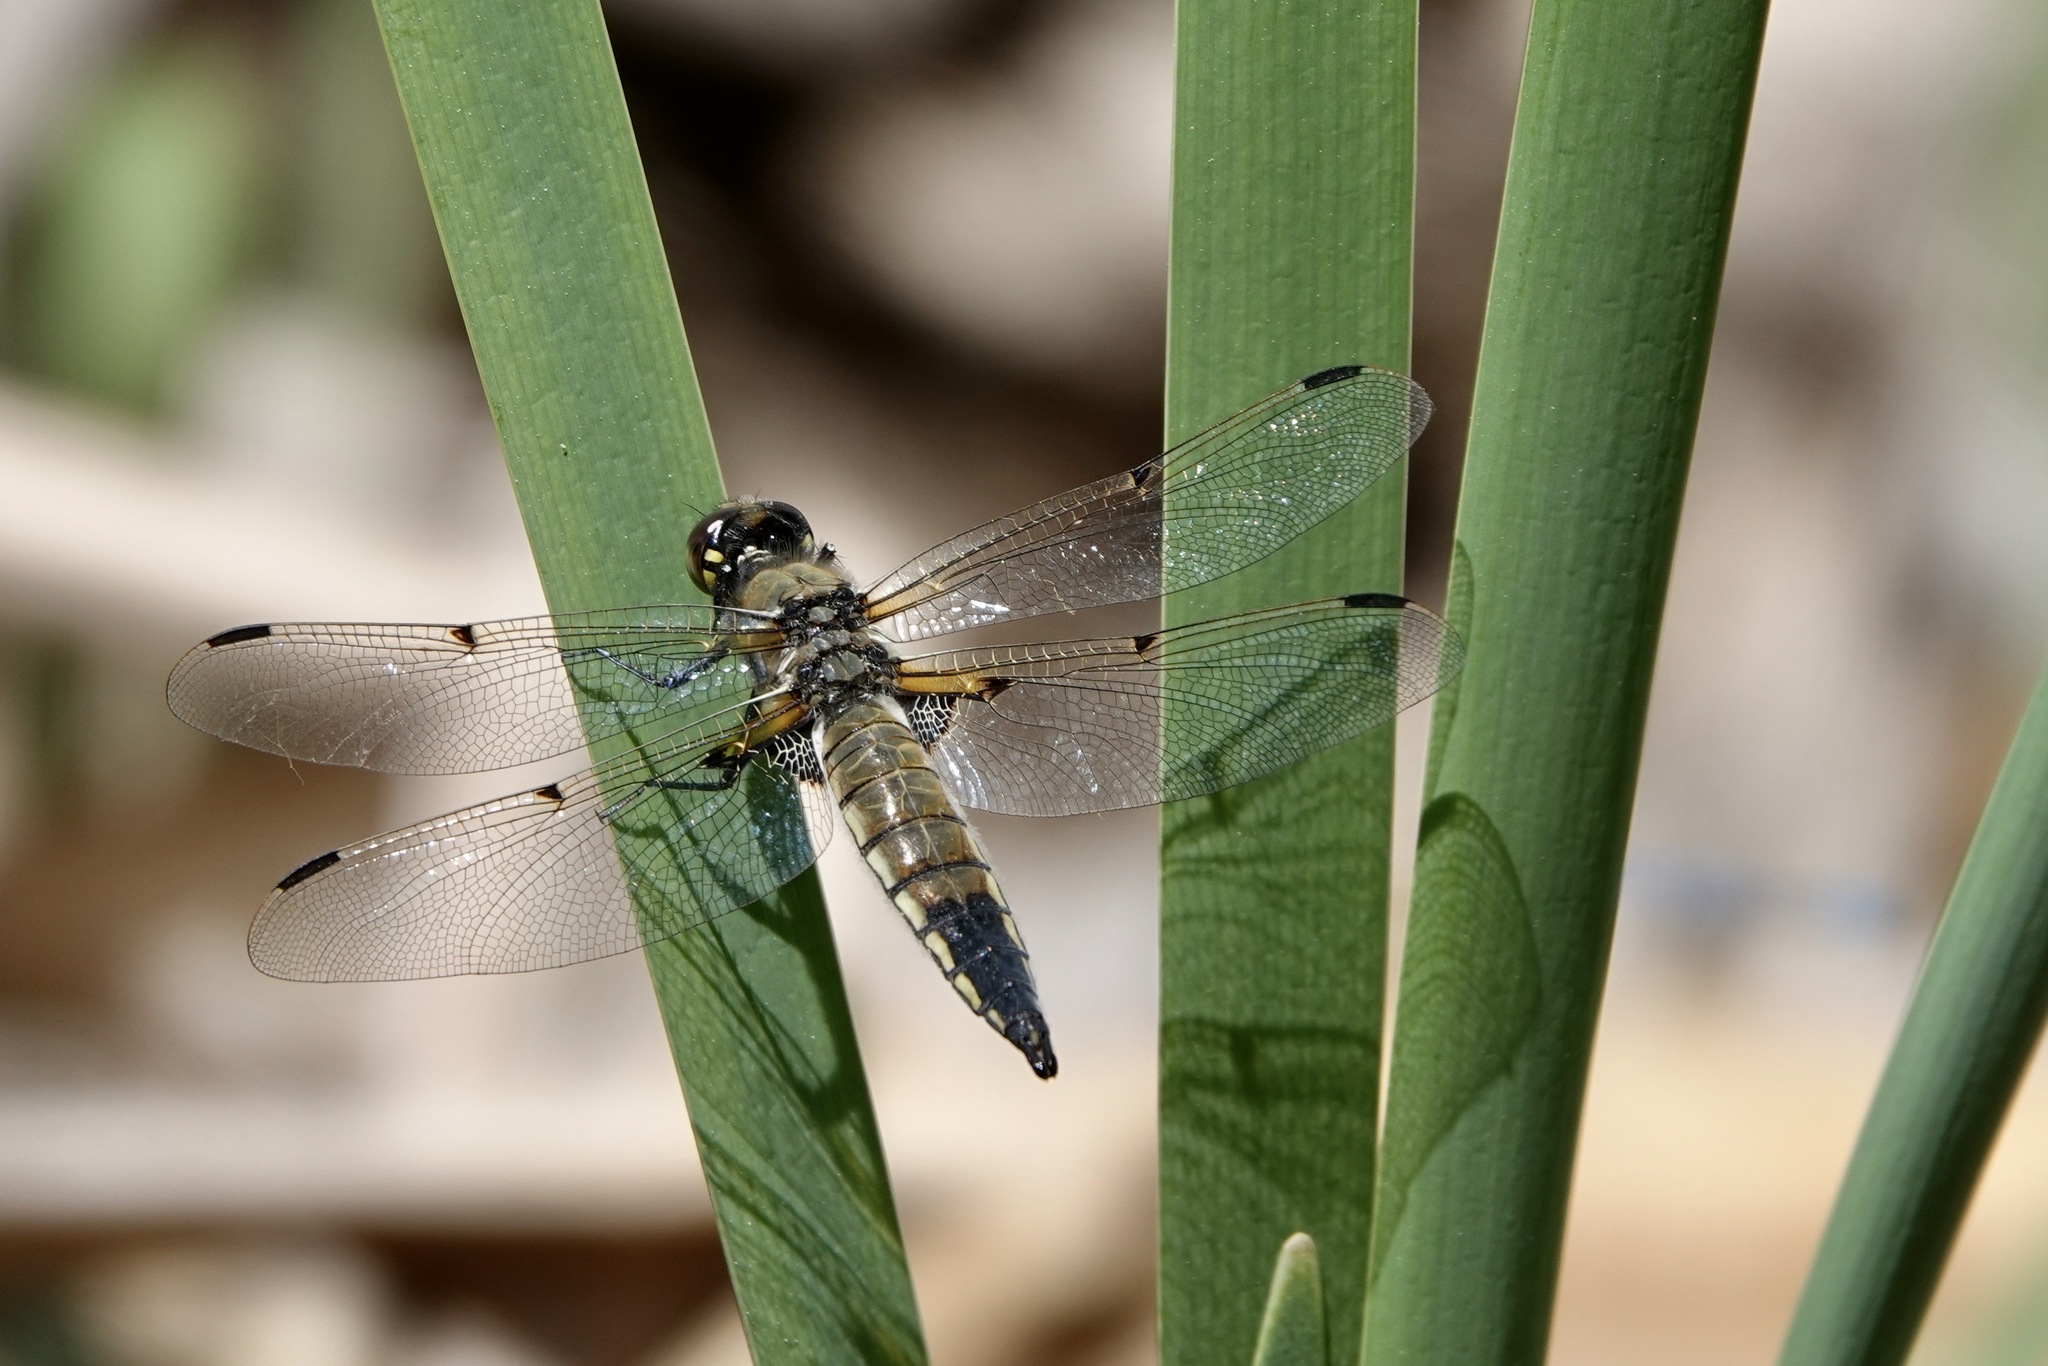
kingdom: Animalia
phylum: Arthropoda
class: Insecta
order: Odonata
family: Libellulidae
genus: Libellula
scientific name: Libellula quadrimaculata
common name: Four-spotted chaser
